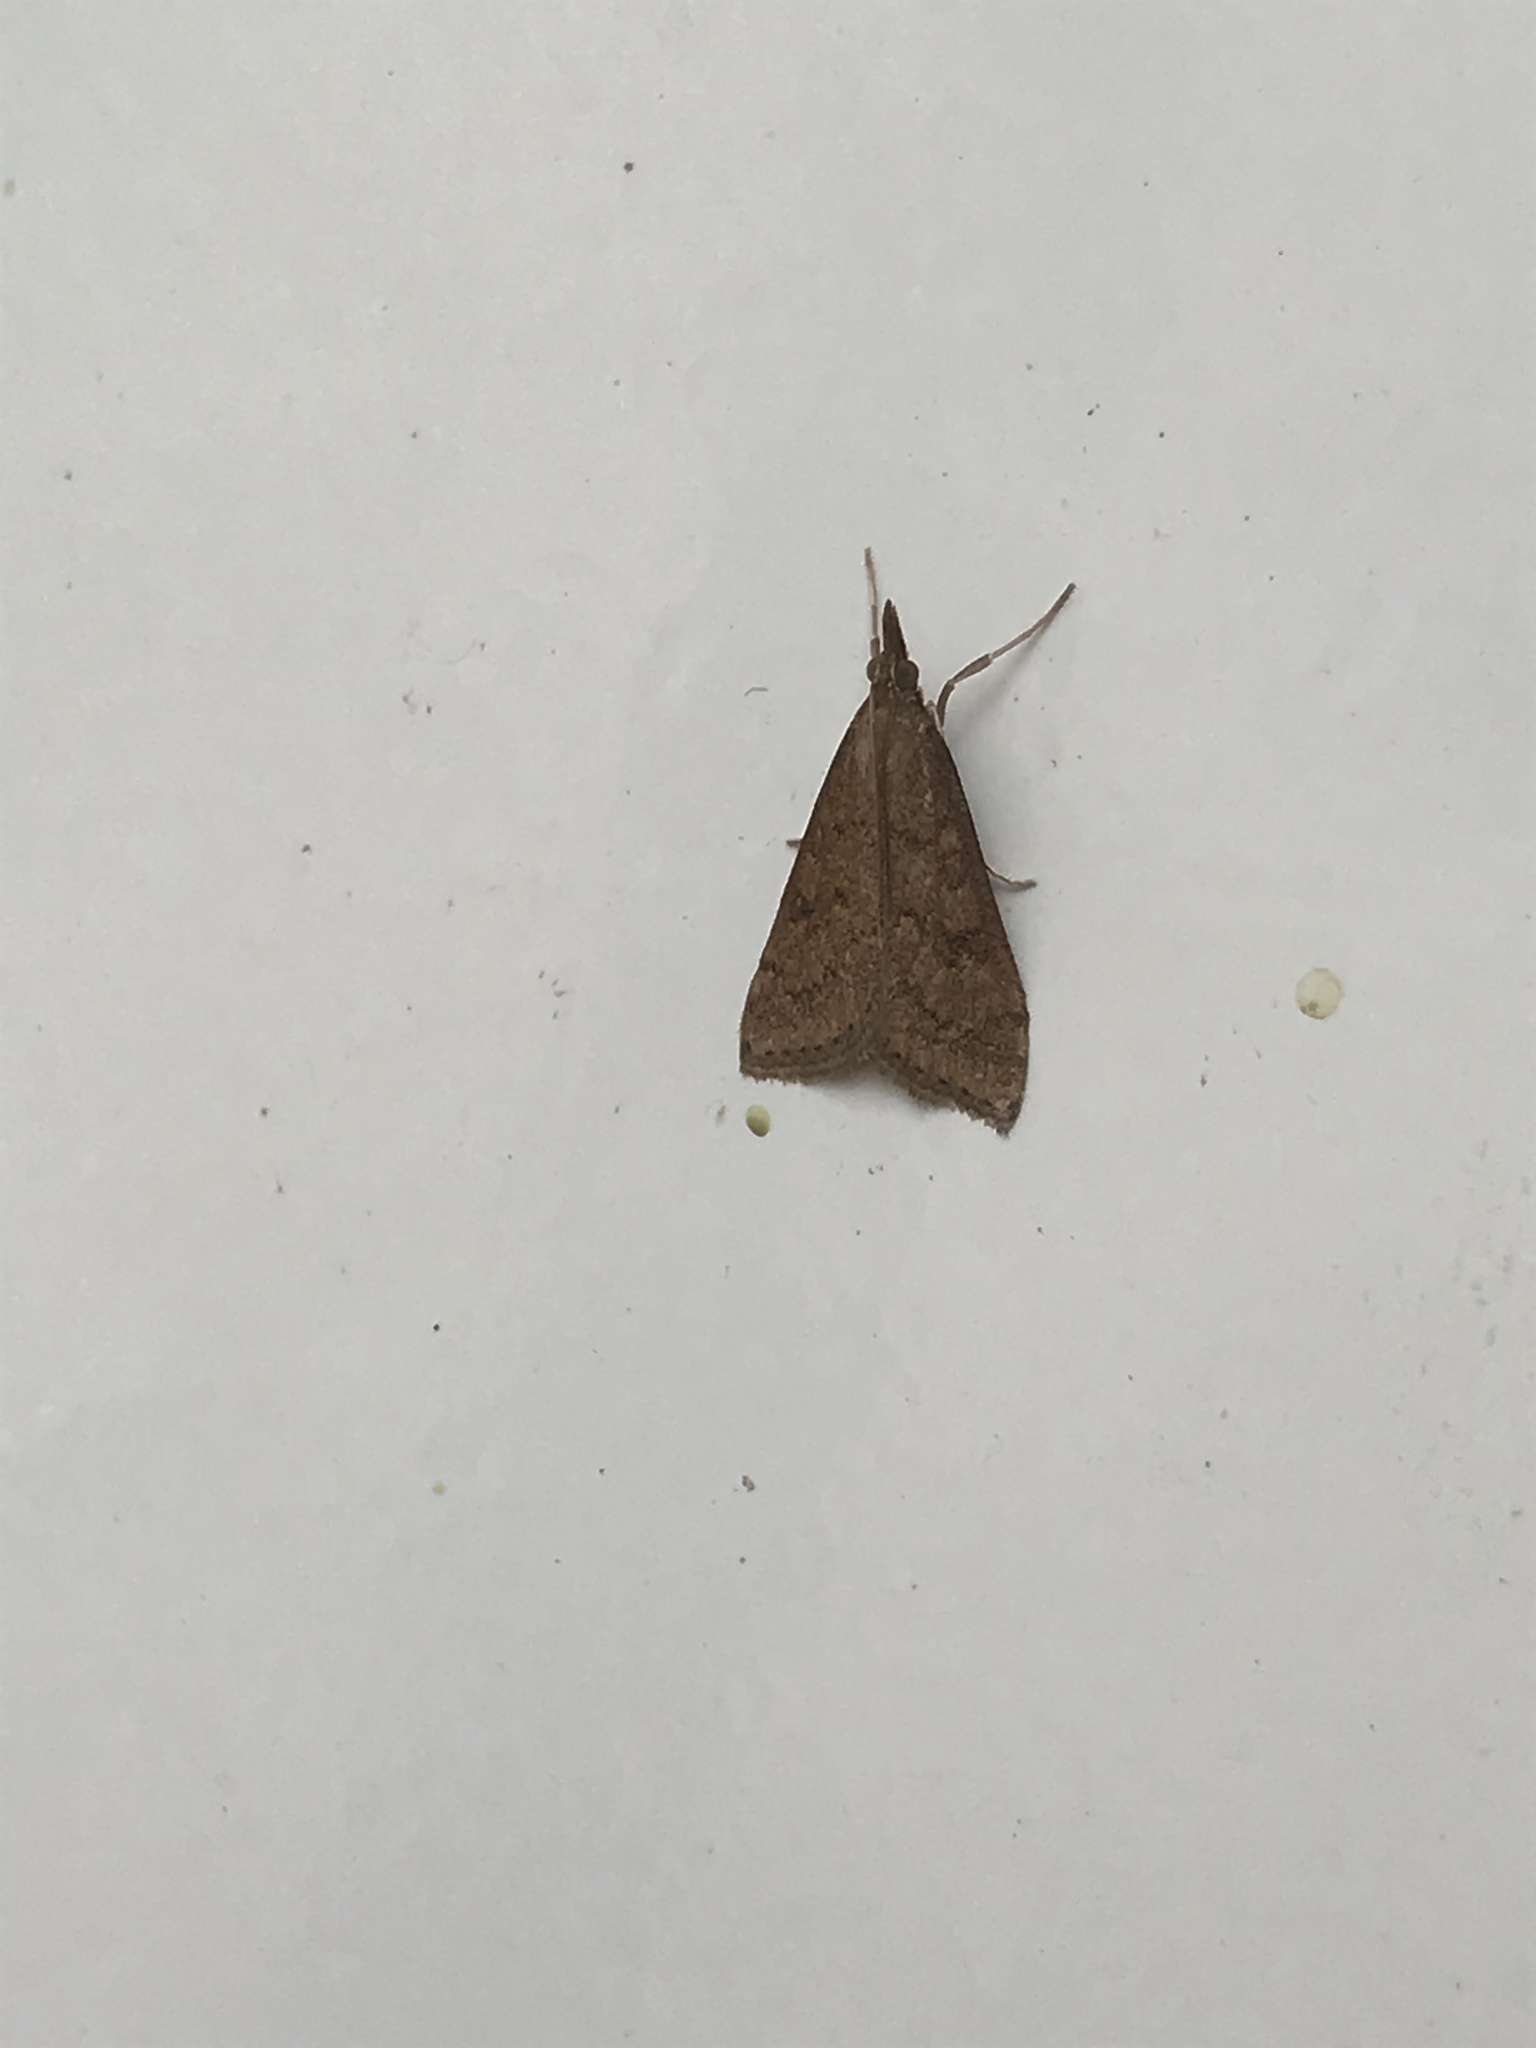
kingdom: Animalia
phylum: Arthropoda
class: Insecta
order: Lepidoptera
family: Crambidae
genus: Udea
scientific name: Udea rubigalis
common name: Celery leaftier moth
